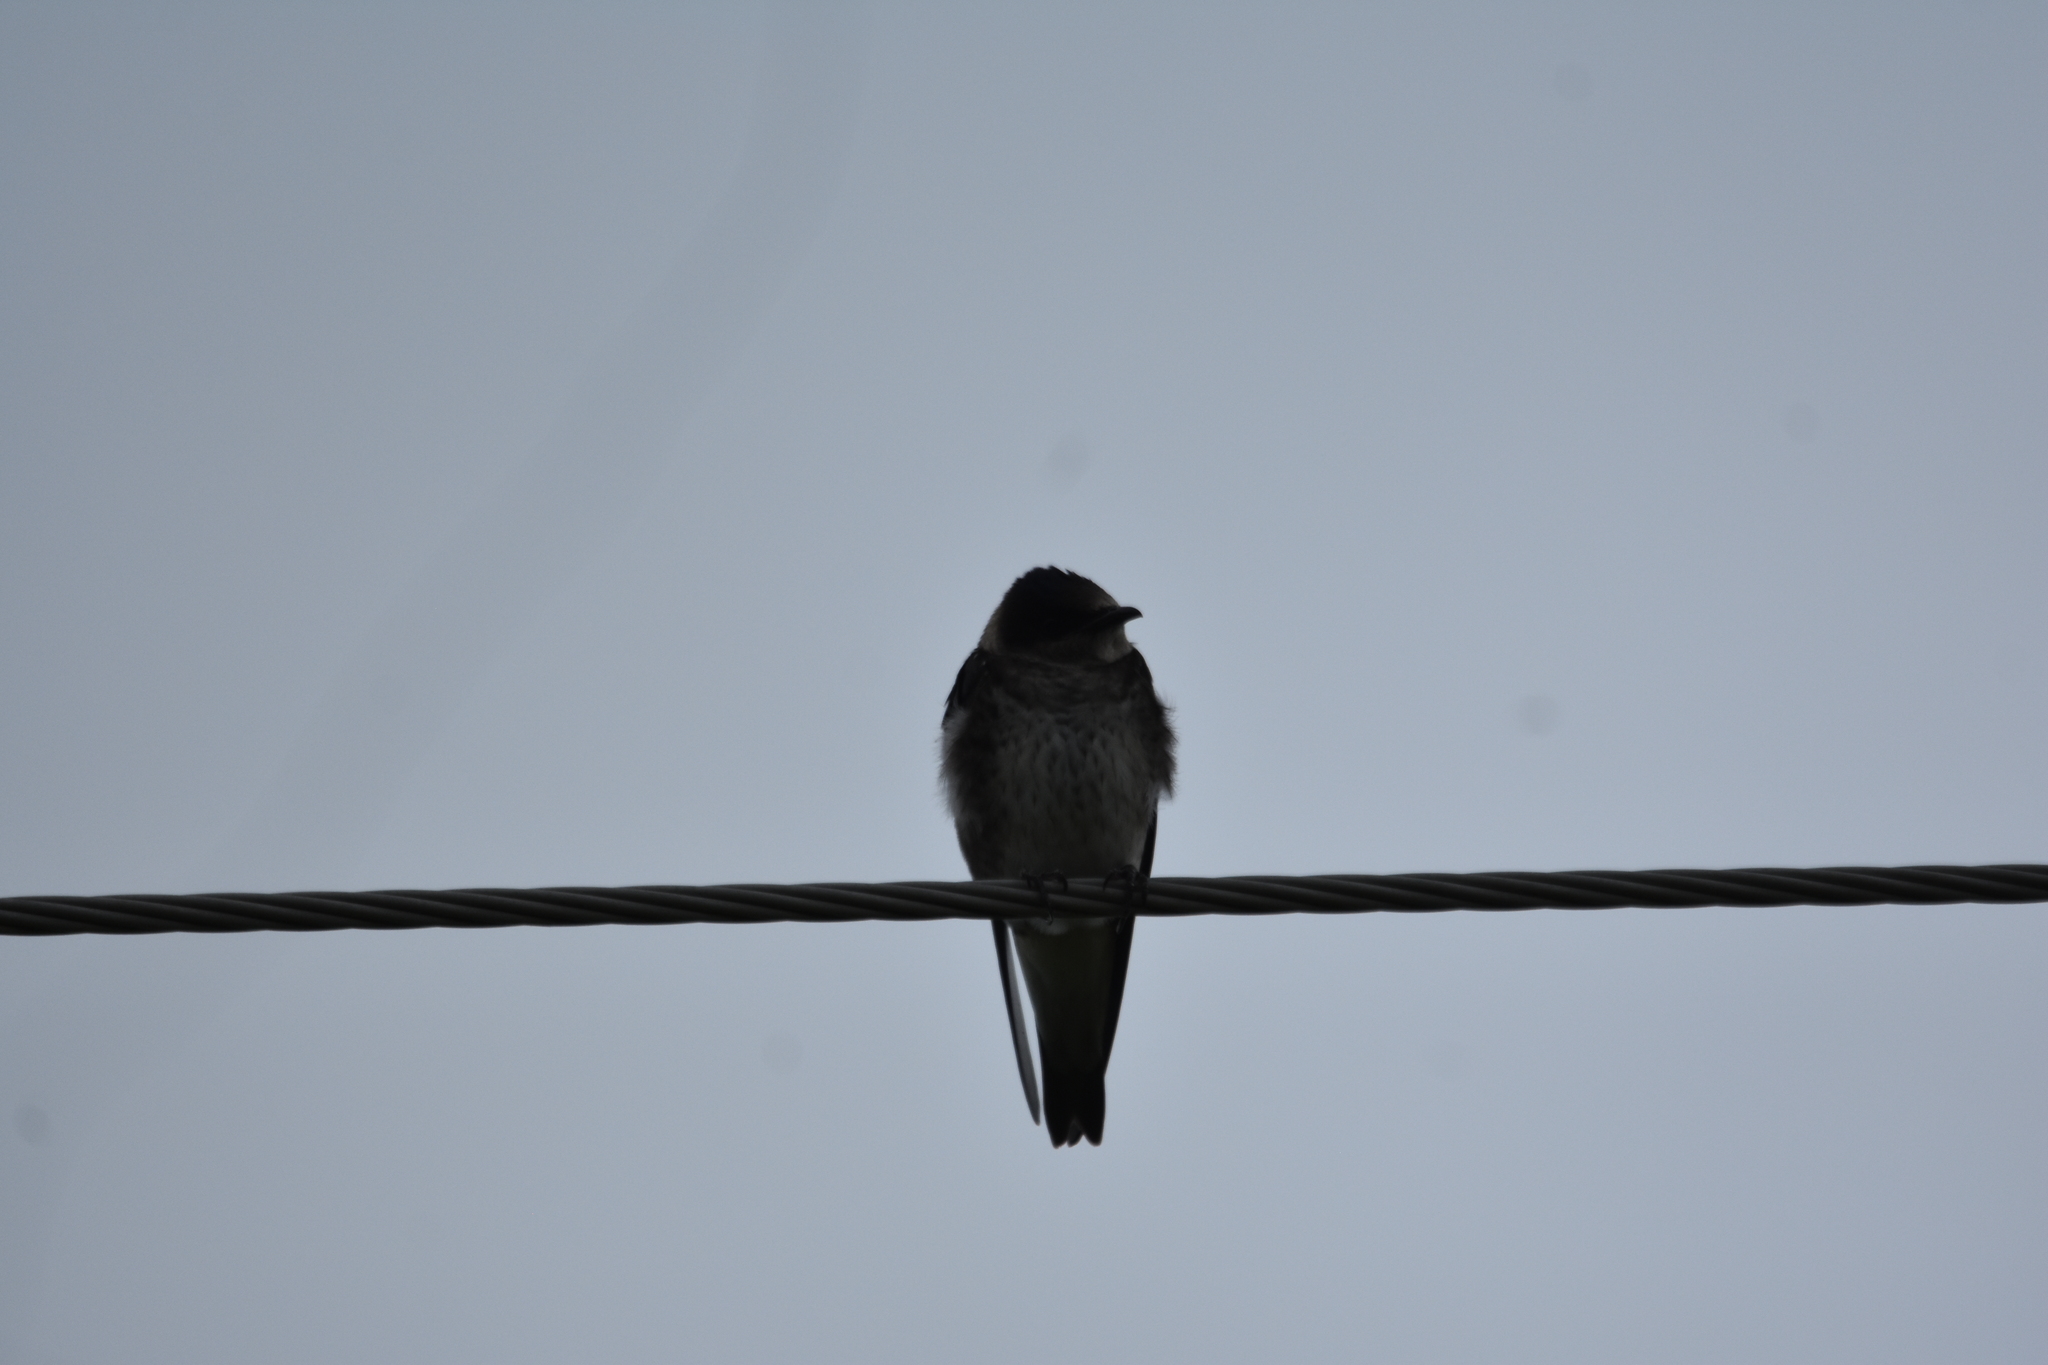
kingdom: Animalia
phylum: Chordata
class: Aves
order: Passeriformes
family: Hirundinidae
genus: Progne
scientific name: Progne subis
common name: Purple martin
